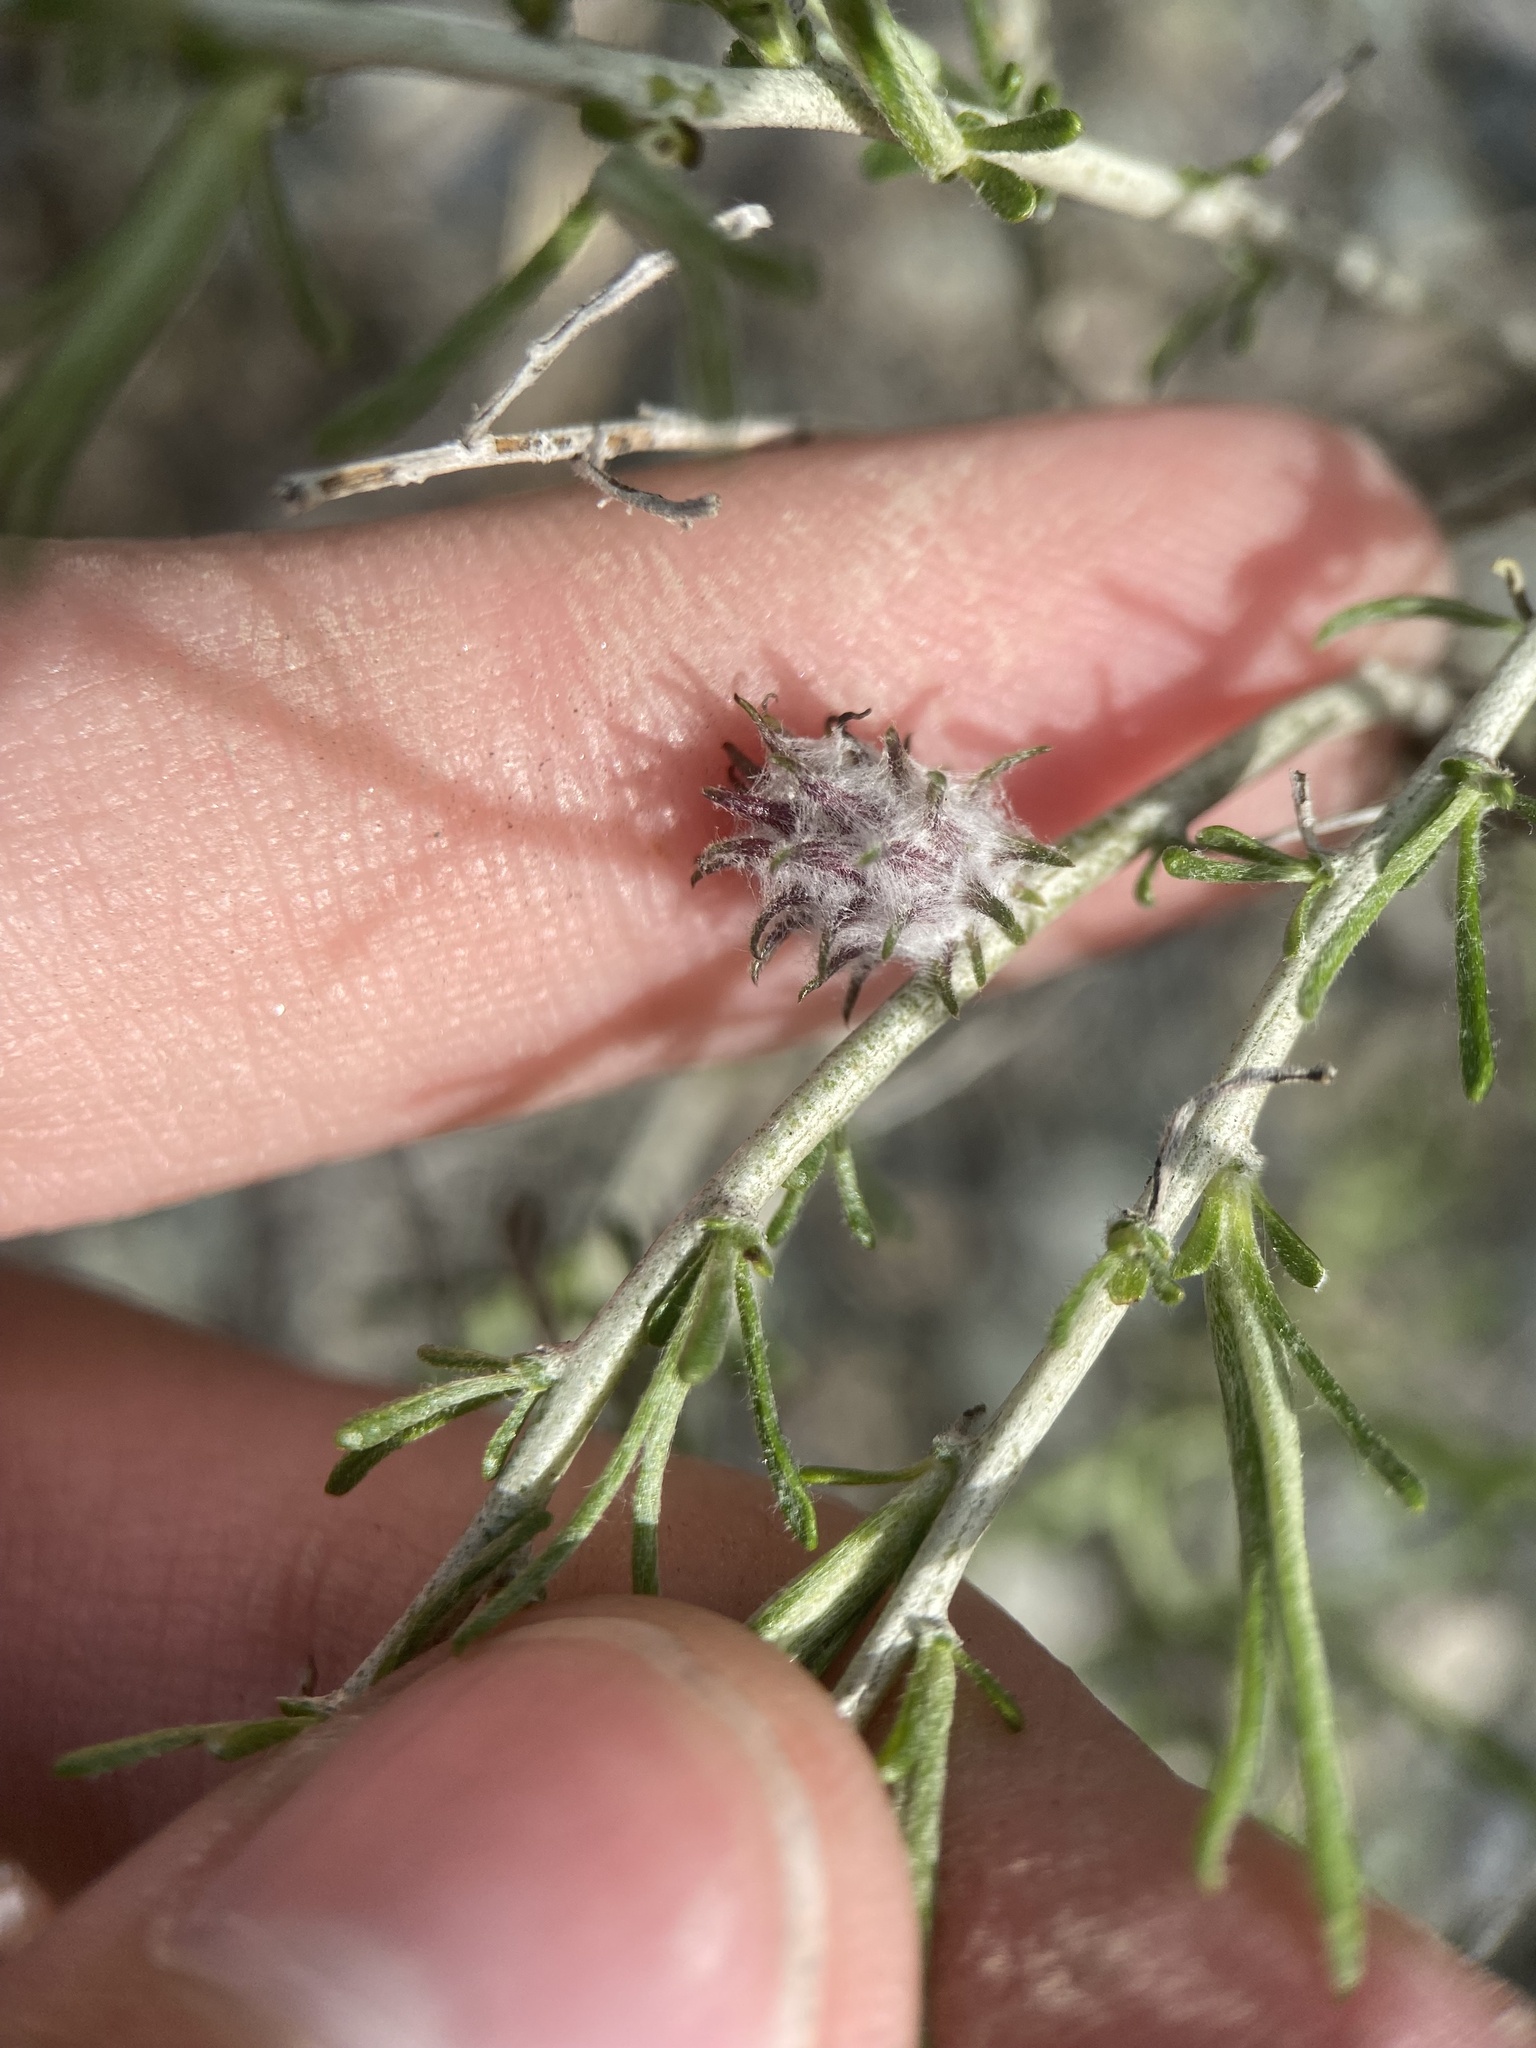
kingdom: Animalia
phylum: Arthropoda
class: Insecta
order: Diptera
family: Cecidomyiidae
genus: Rhopalomyia
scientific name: Rhopalomyia utahensis
